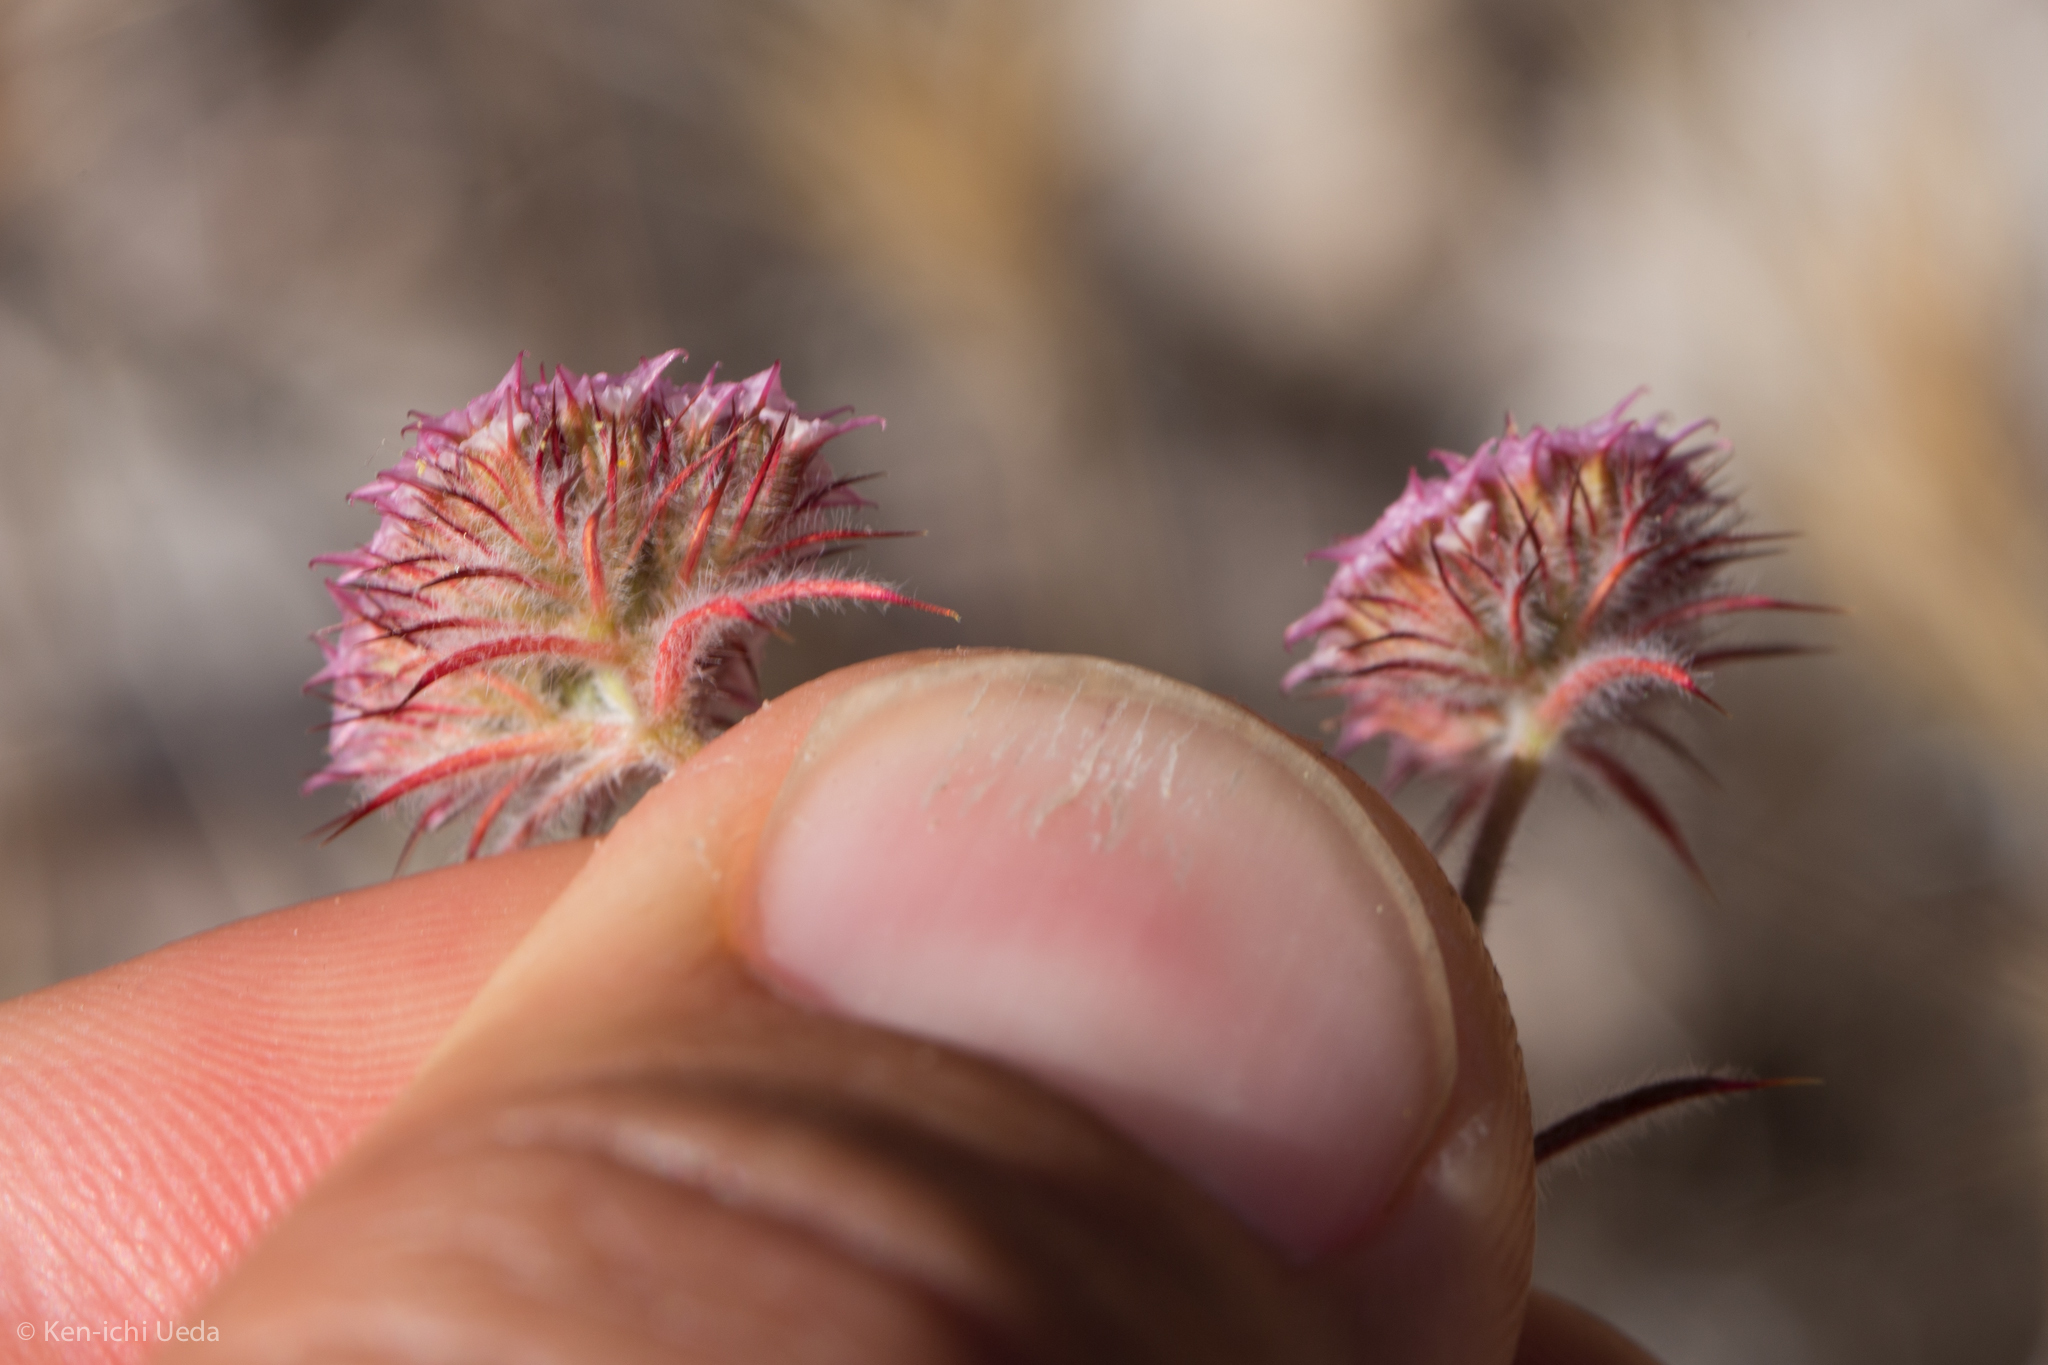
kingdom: Plantae
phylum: Tracheophyta
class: Magnoliopsida
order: Caryophyllales
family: Polygonaceae
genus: Chorizanthe
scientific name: Chorizanthe douglasii
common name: Douglas's spineflower
